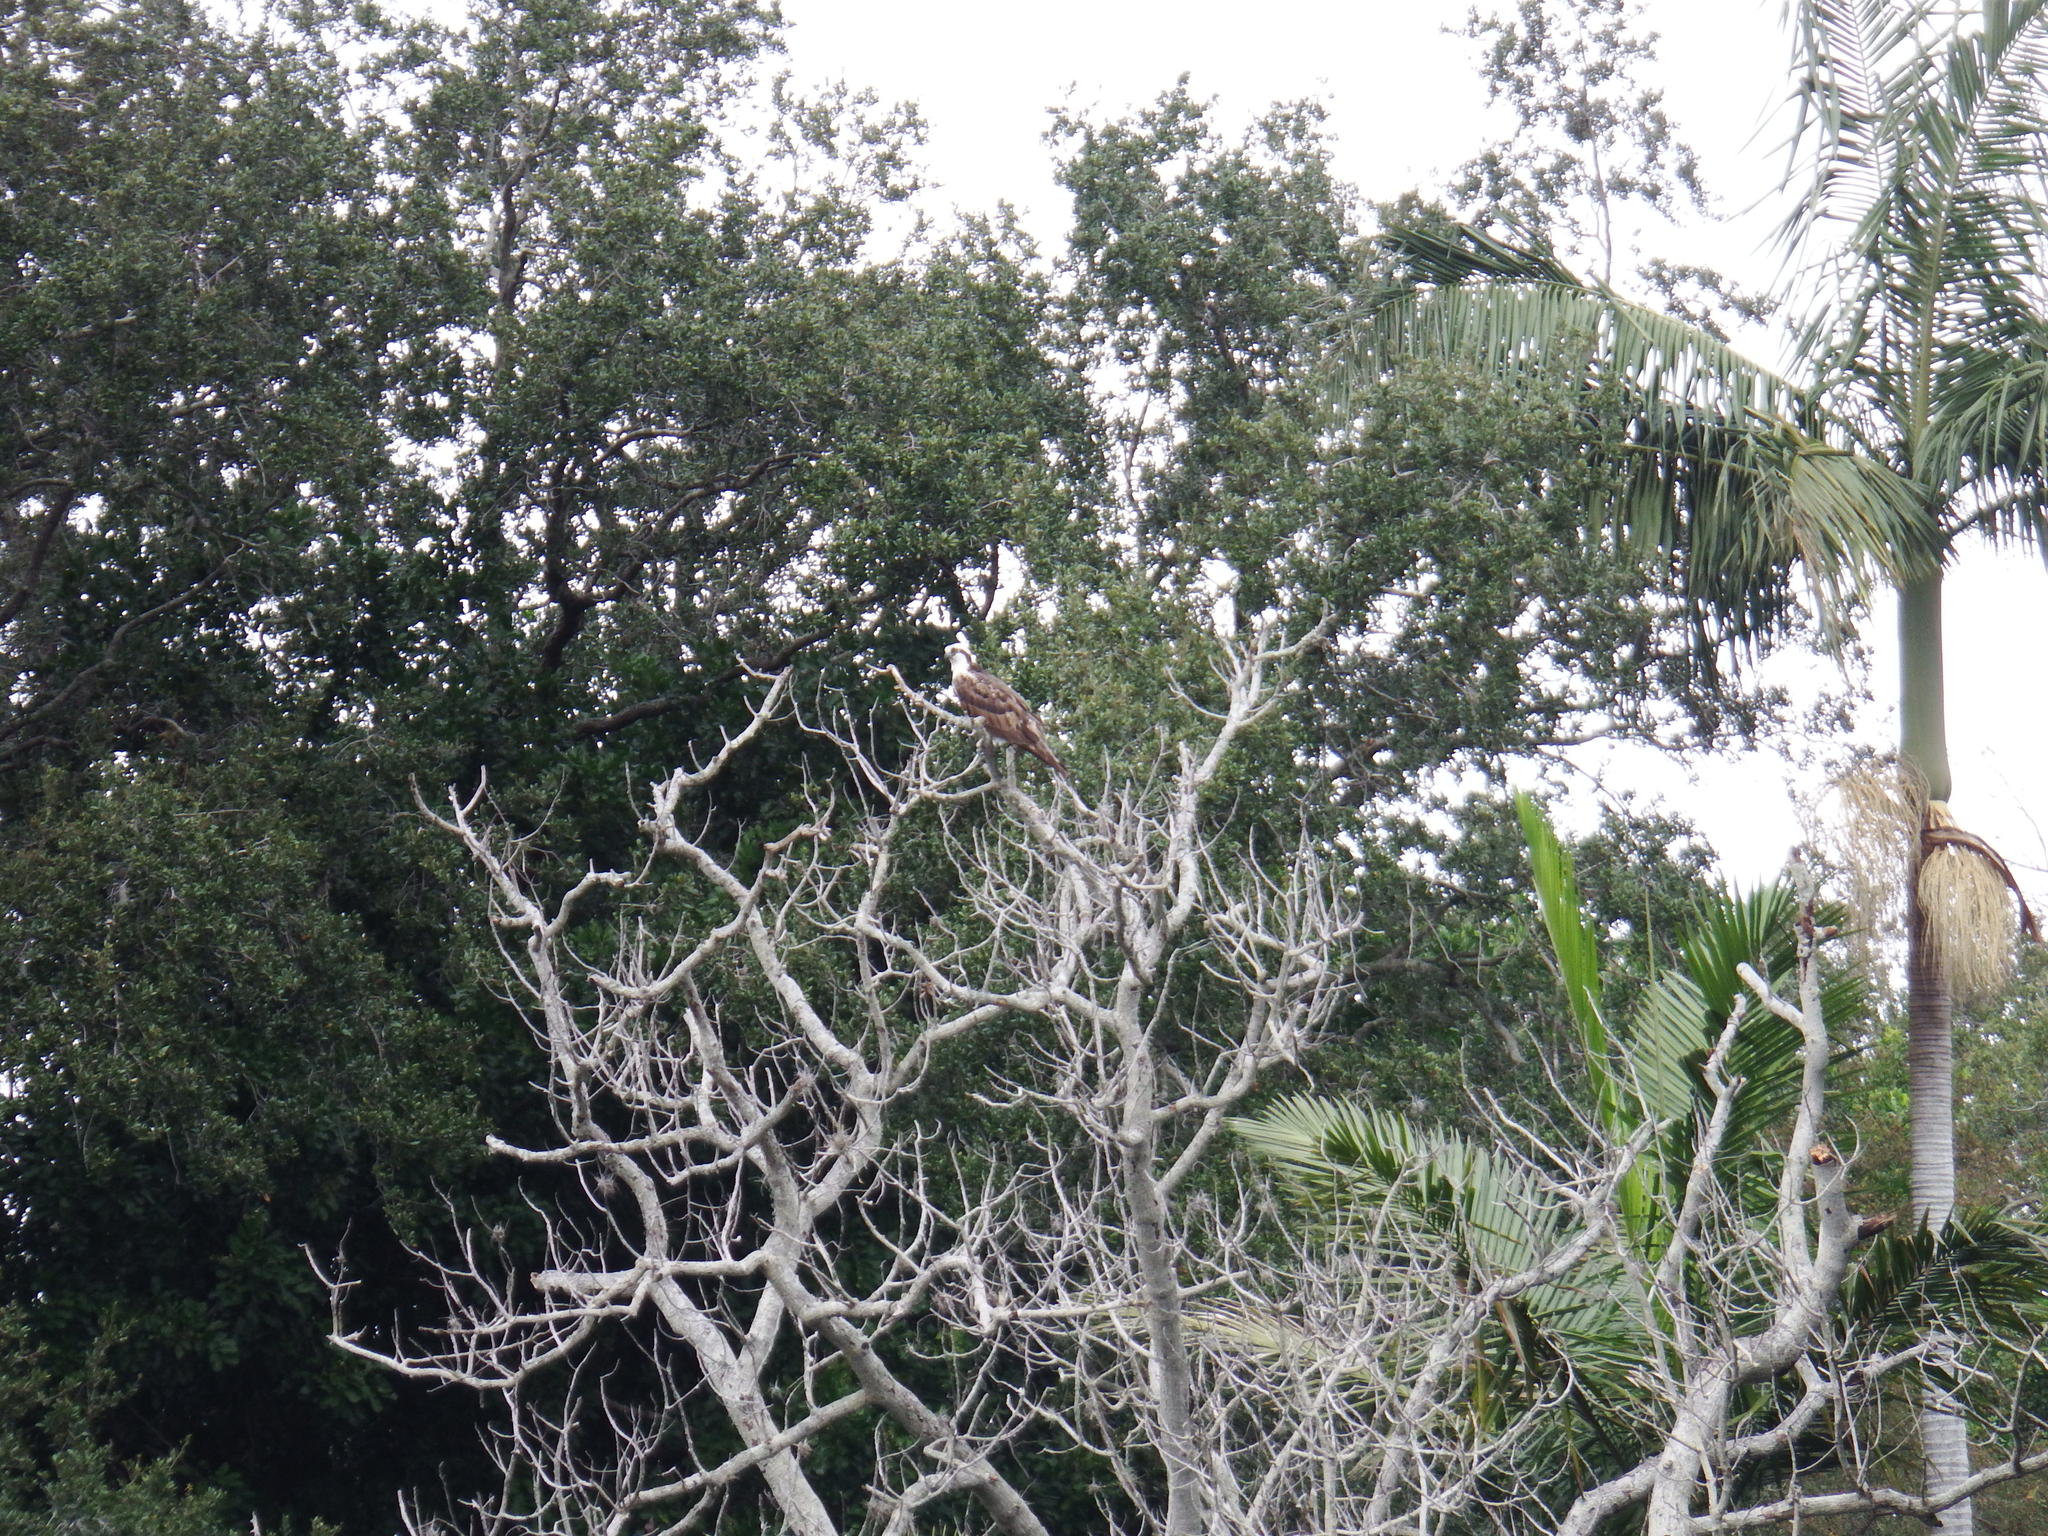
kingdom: Animalia
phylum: Chordata
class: Aves
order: Accipitriformes
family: Pandionidae
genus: Pandion
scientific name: Pandion haliaetus
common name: Osprey
